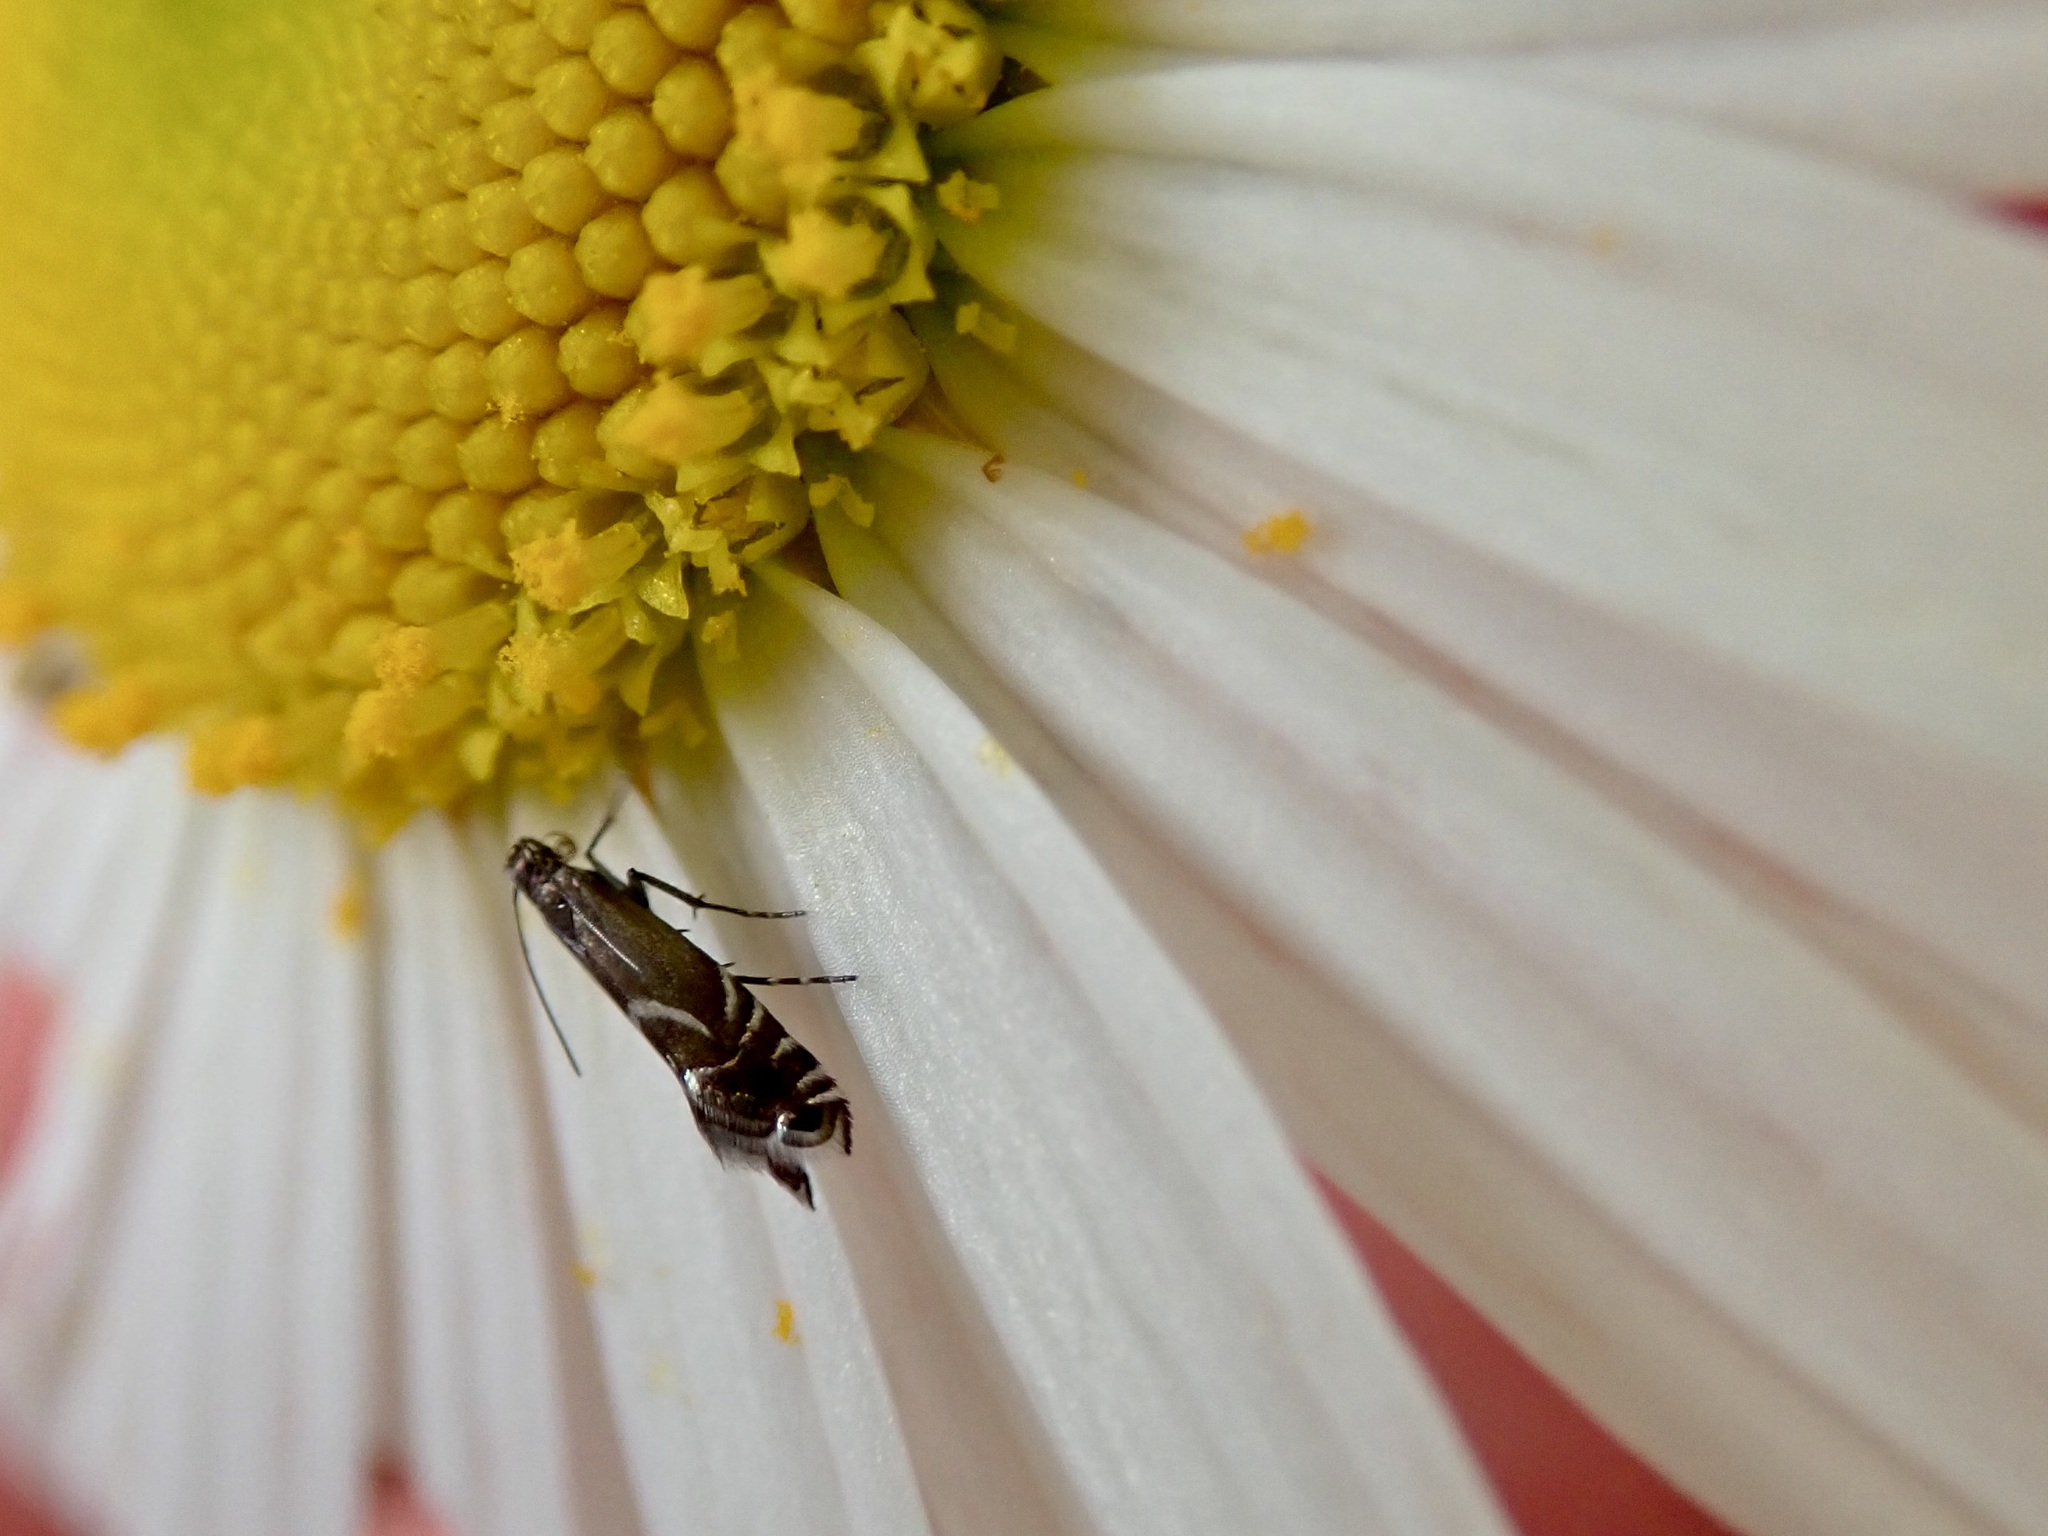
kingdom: Animalia
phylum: Arthropoda
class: Insecta
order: Lepidoptera
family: Glyphipterigidae
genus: Glyphipterix
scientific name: Glyphipterix simpliciella
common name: Cocksfoot moth
